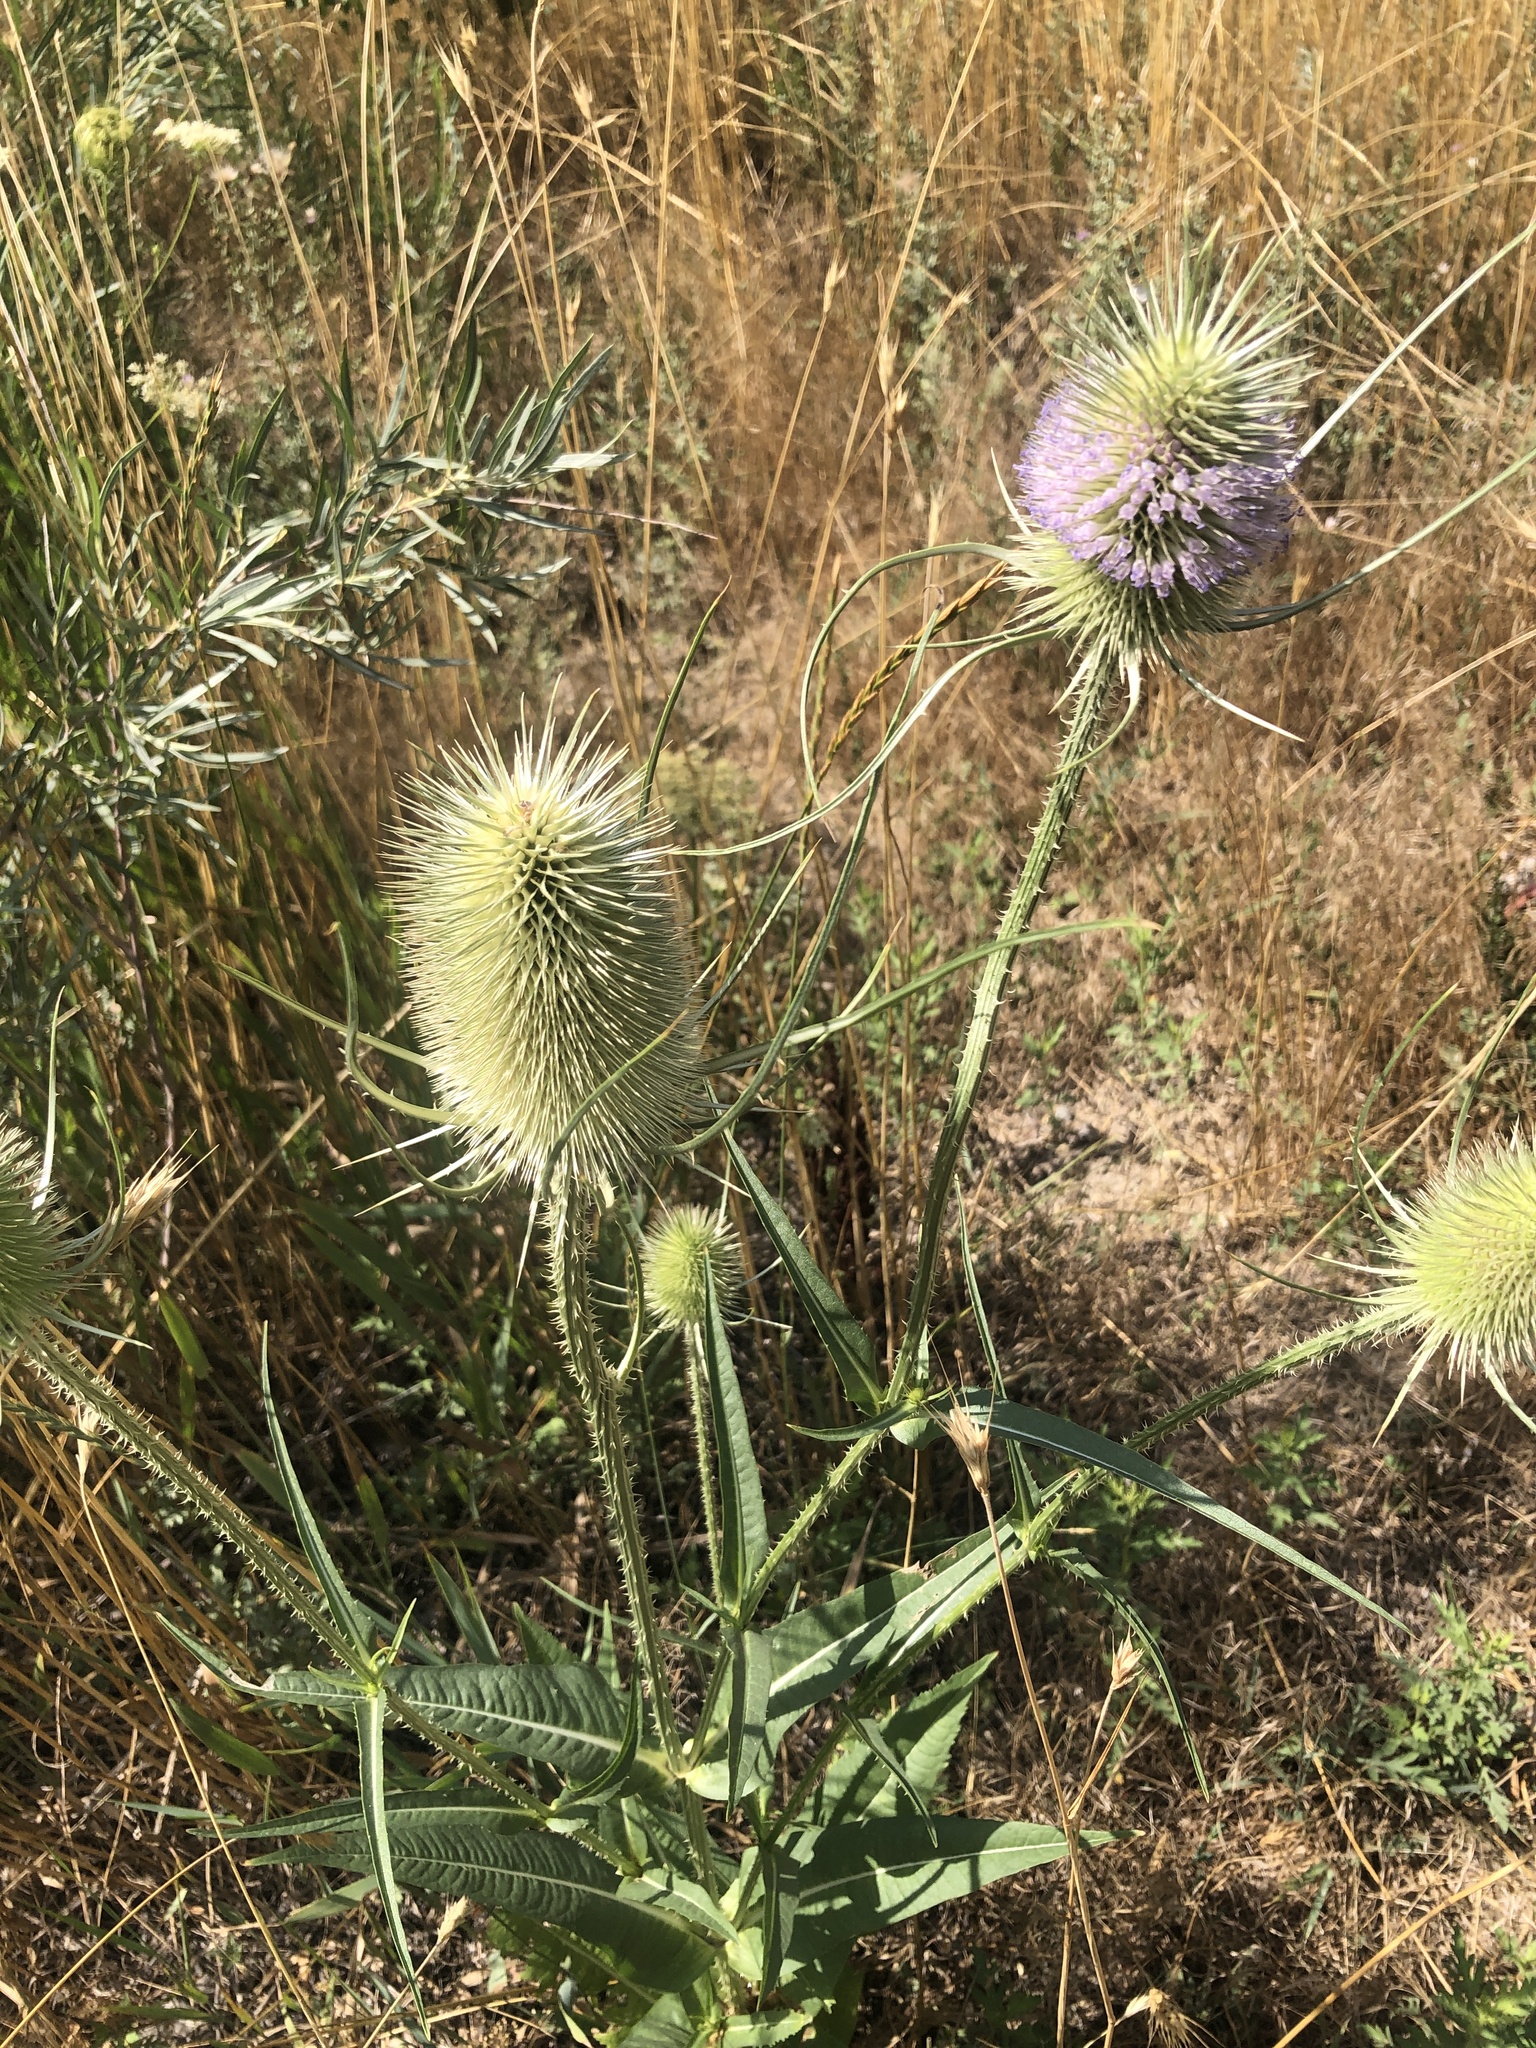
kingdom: Plantae
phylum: Tracheophyta
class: Magnoliopsida
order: Dipsacales
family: Caprifoliaceae
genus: Dipsacus
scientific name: Dipsacus fullonum
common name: Teasel
